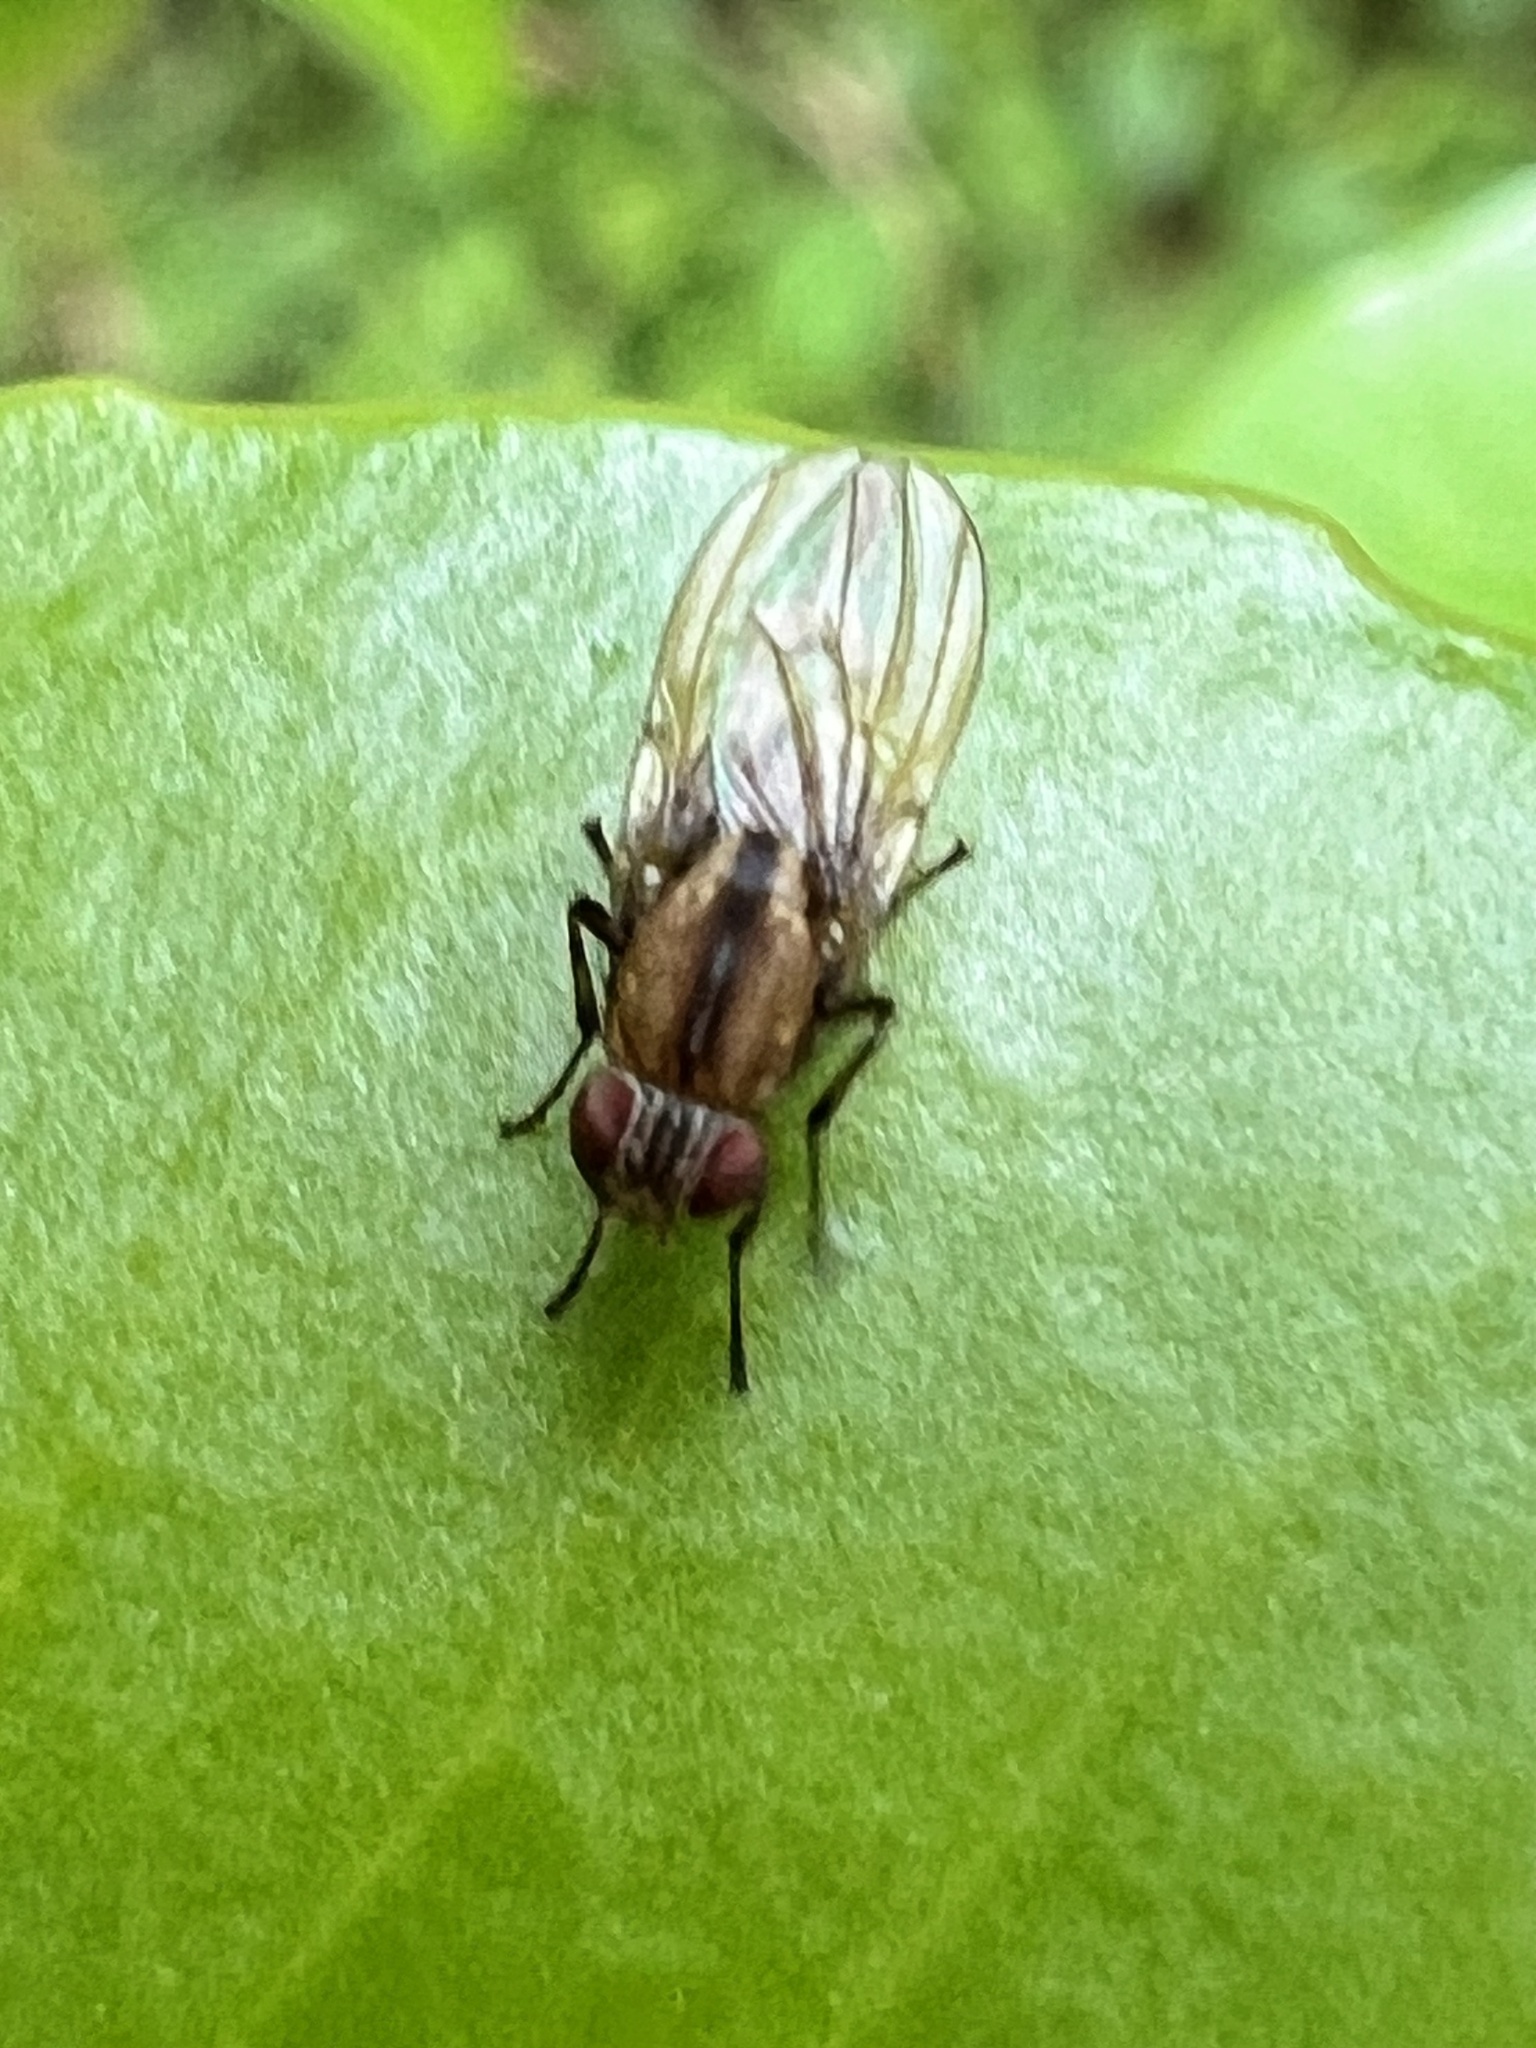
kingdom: Animalia
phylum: Arthropoda
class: Insecta
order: Diptera
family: Lauxaniidae
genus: Sapromyza
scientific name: Sapromyza neozelandica
